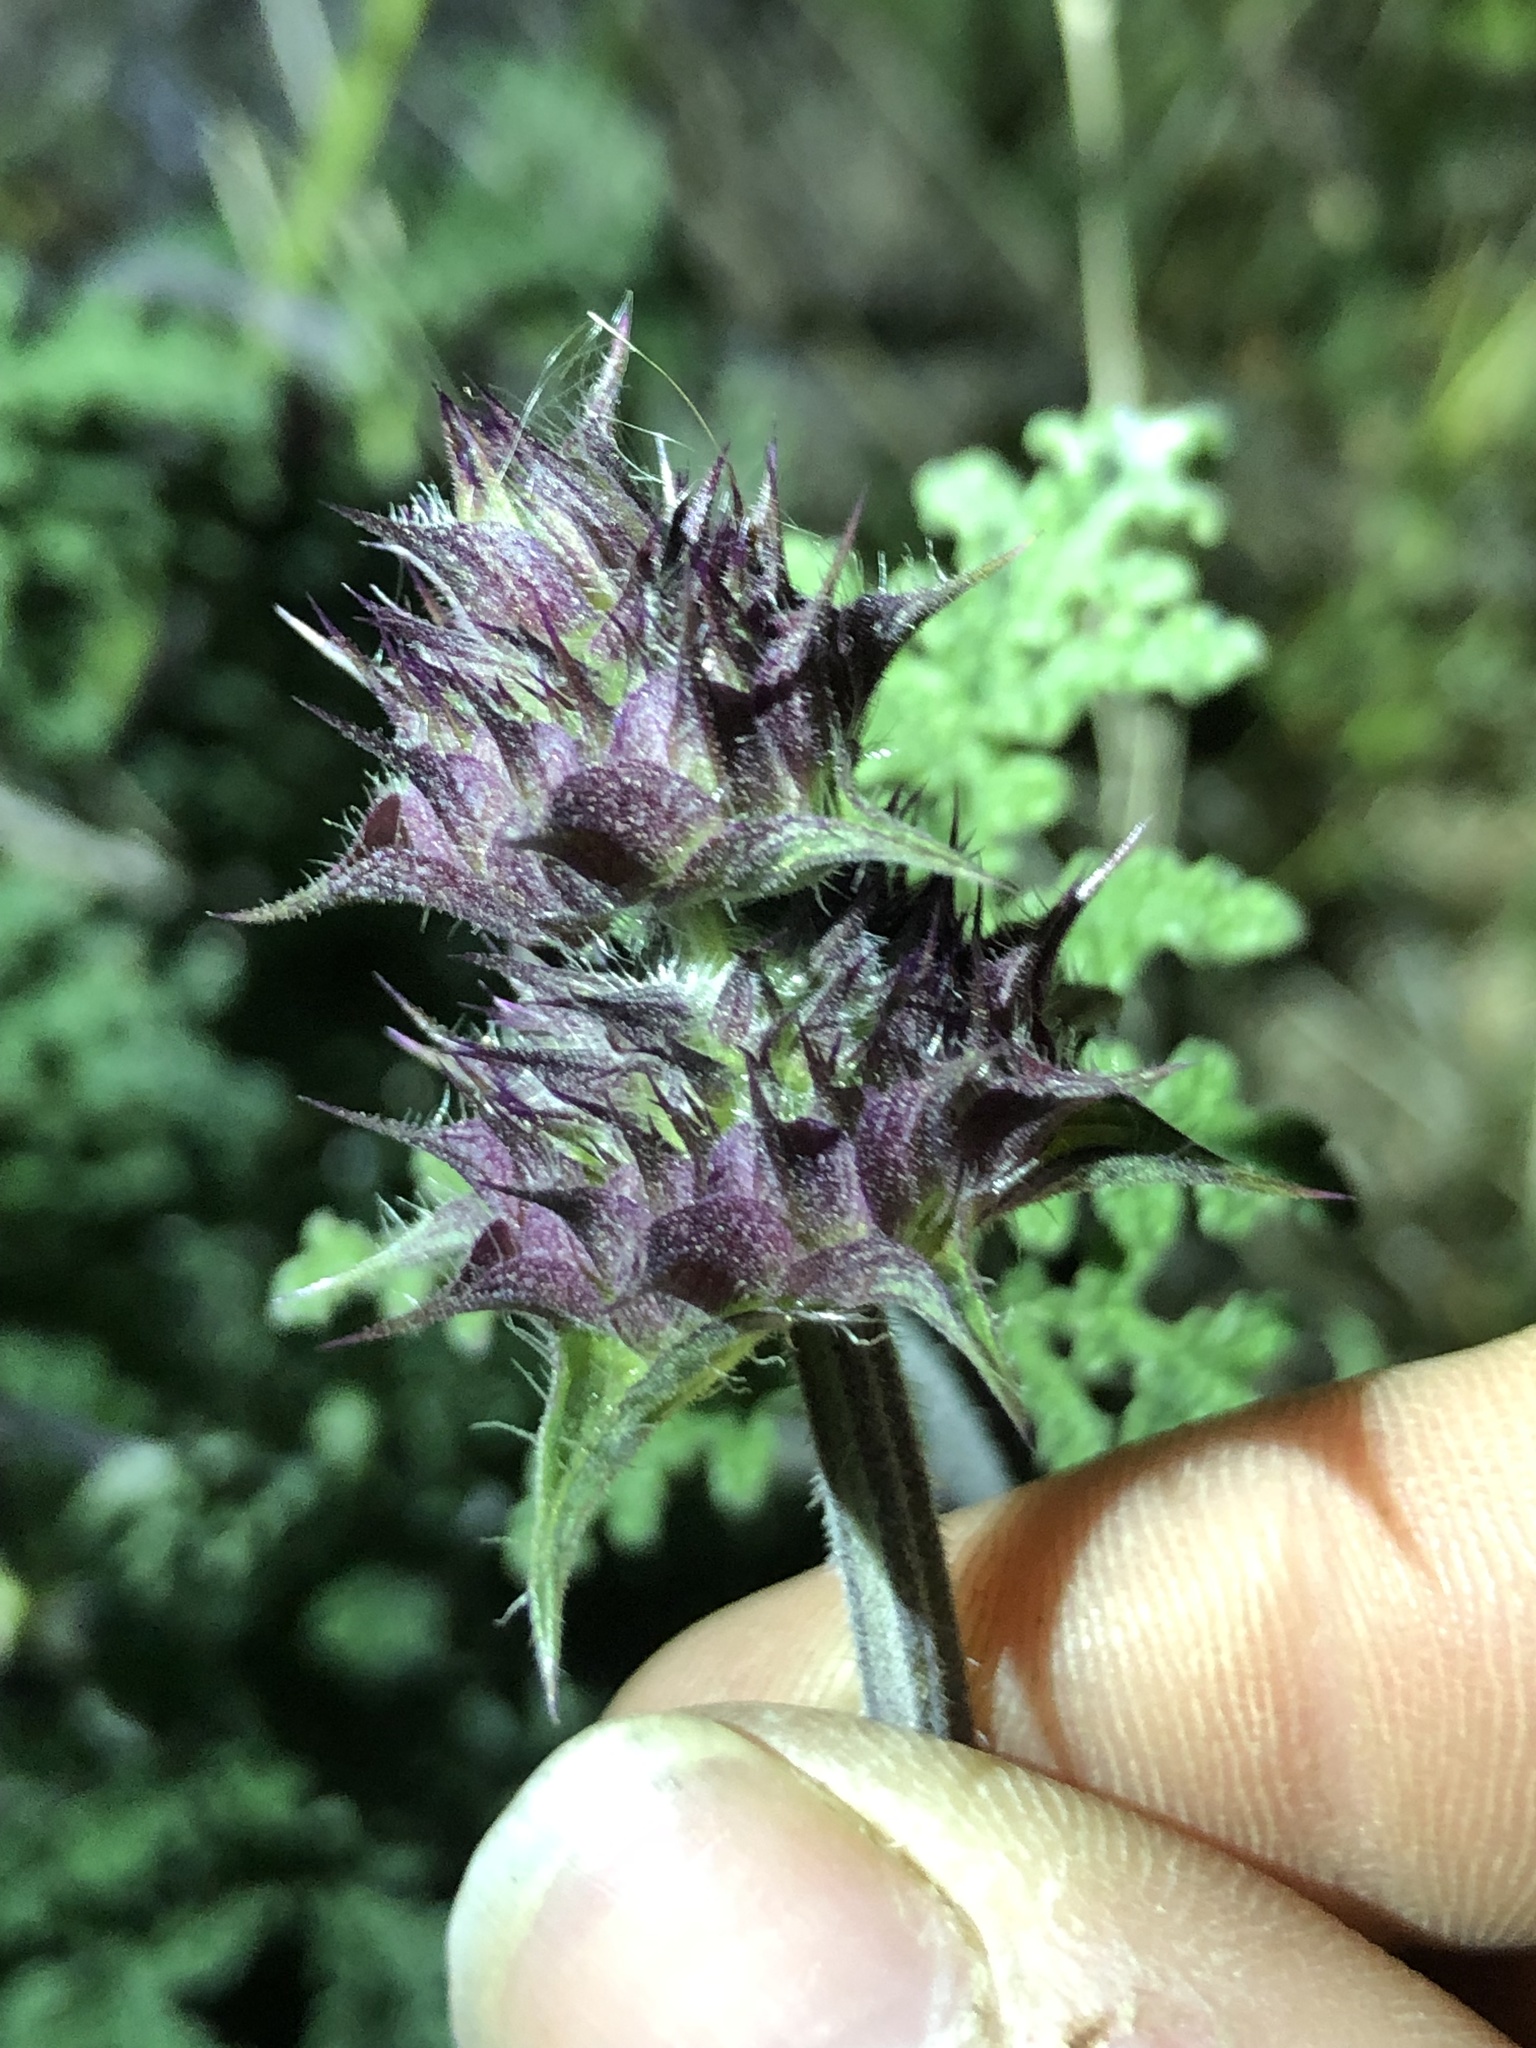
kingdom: Plantae
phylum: Tracheophyta
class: Magnoliopsida
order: Lamiales
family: Lamiaceae
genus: Salvia
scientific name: Salvia columbariae
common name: Chia
